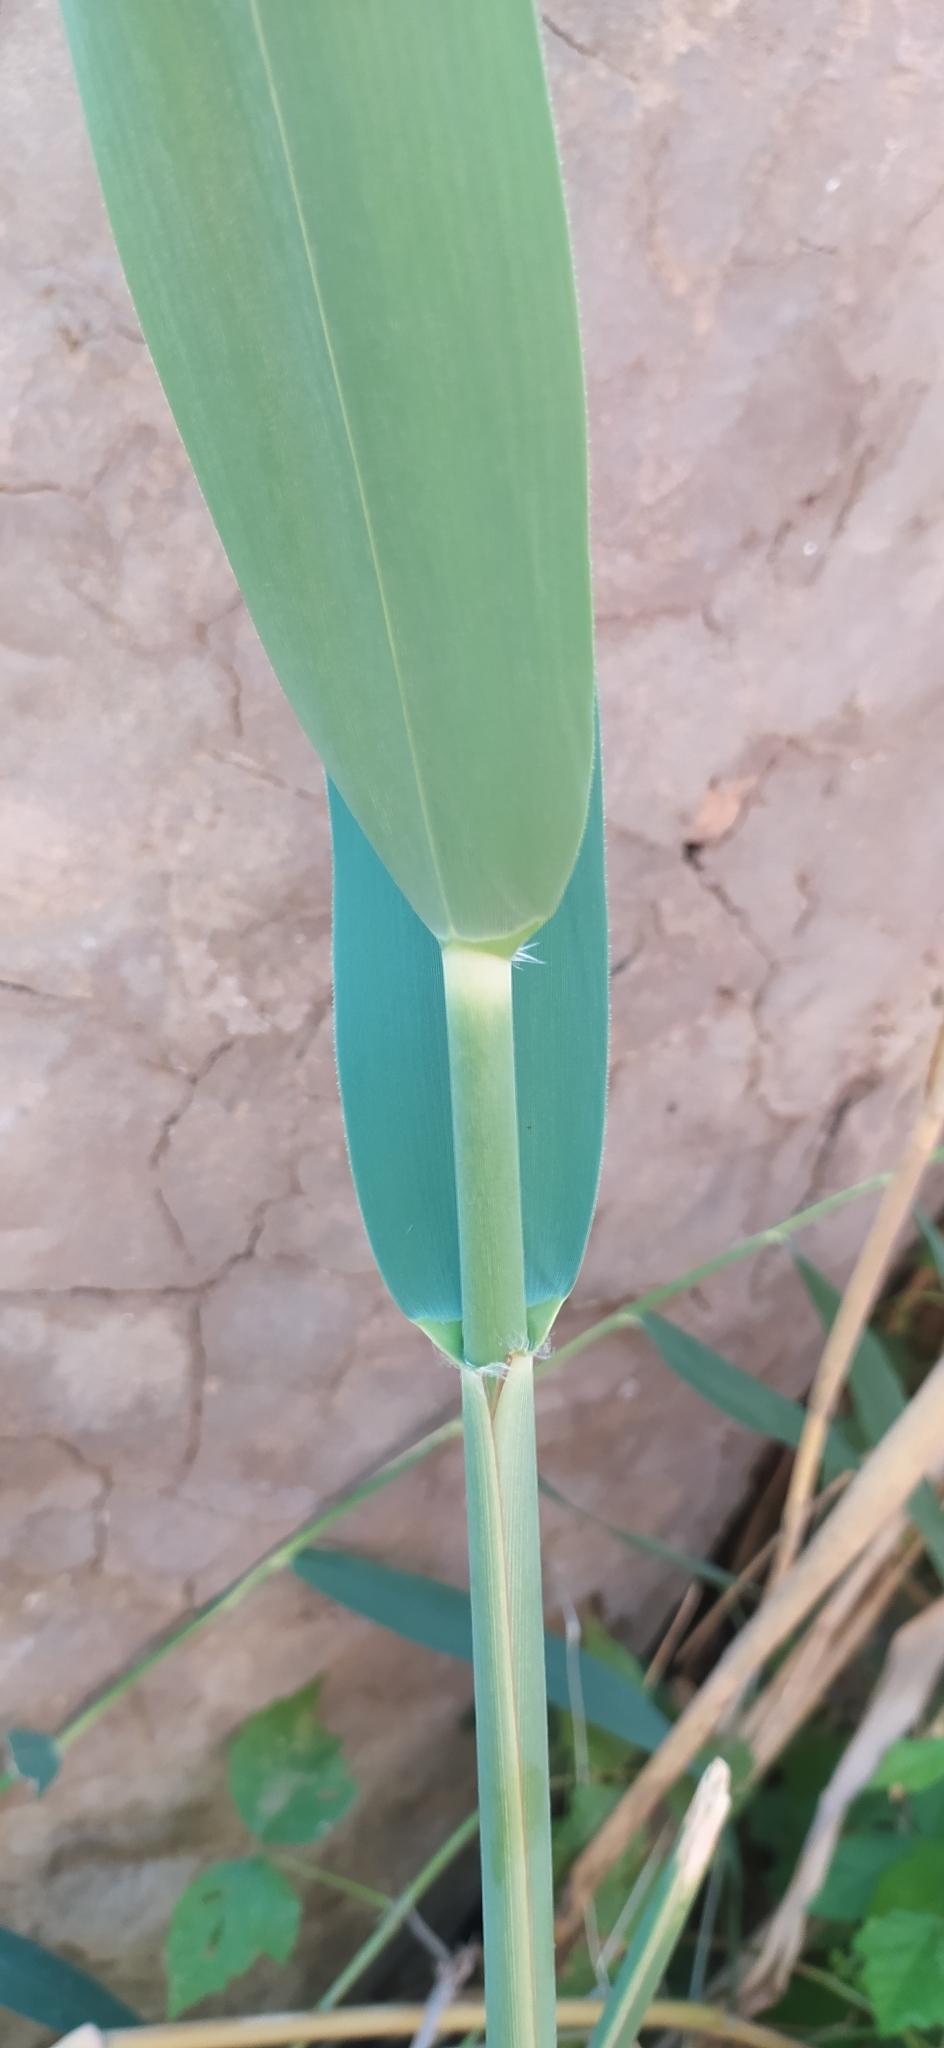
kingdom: Plantae
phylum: Tracheophyta
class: Liliopsida
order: Poales
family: Poaceae
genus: Phragmites
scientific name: Phragmites australis
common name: Common reed
